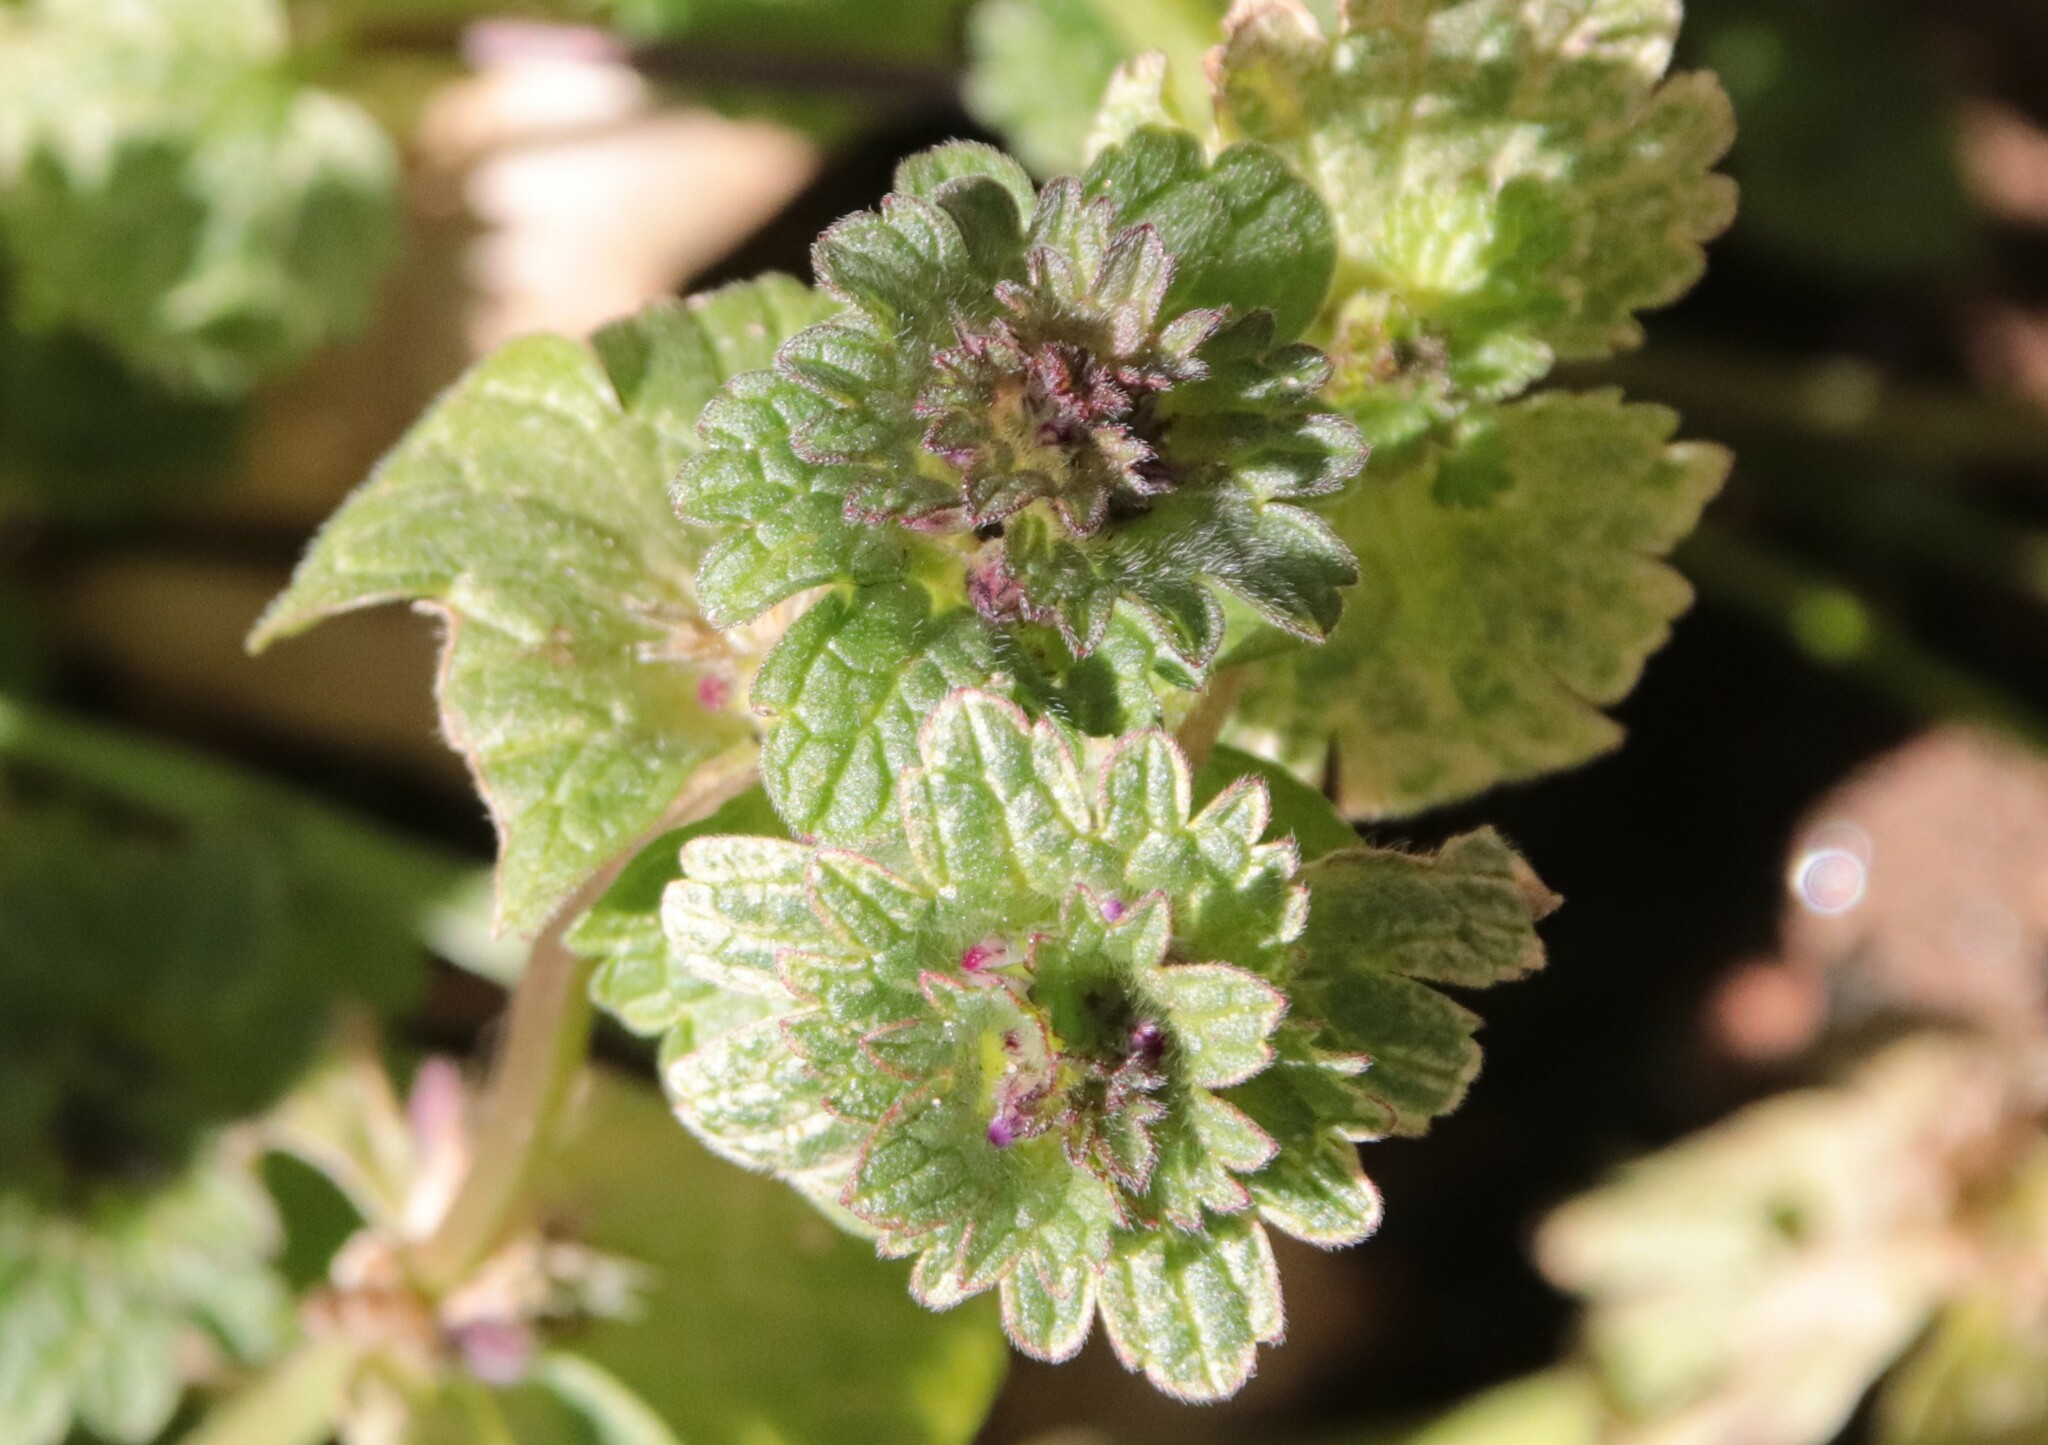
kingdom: Plantae
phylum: Tracheophyta
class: Magnoliopsida
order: Lamiales
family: Lamiaceae
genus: Lamium
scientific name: Lamium amplexicaule
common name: Henbit dead-nettle
